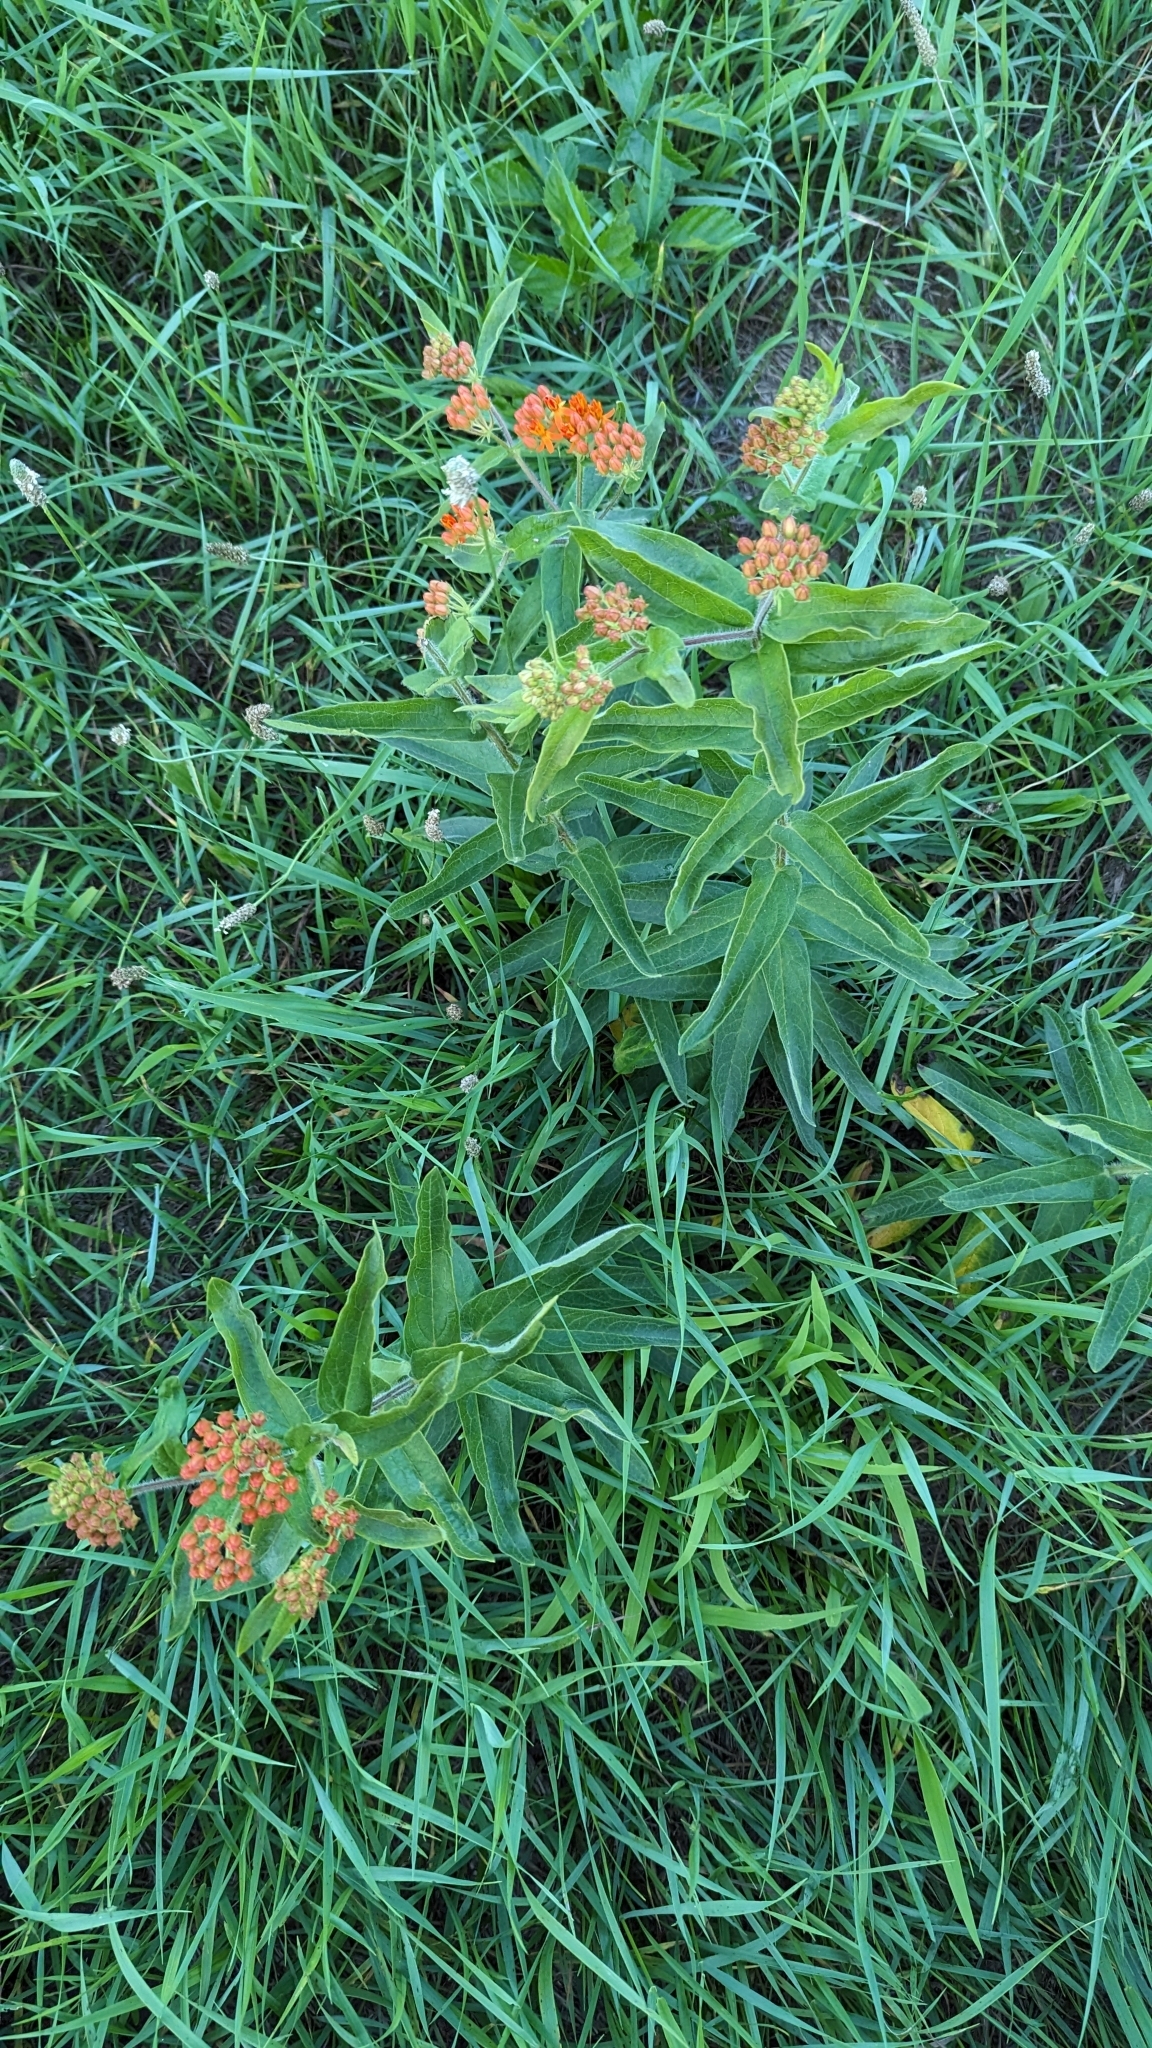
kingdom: Plantae
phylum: Tracheophyta
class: Magnoliopsida
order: Gentianales
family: Apocynaceae
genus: Asclepias
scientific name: Asclepias tuberosa
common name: Butterfly milkweed
